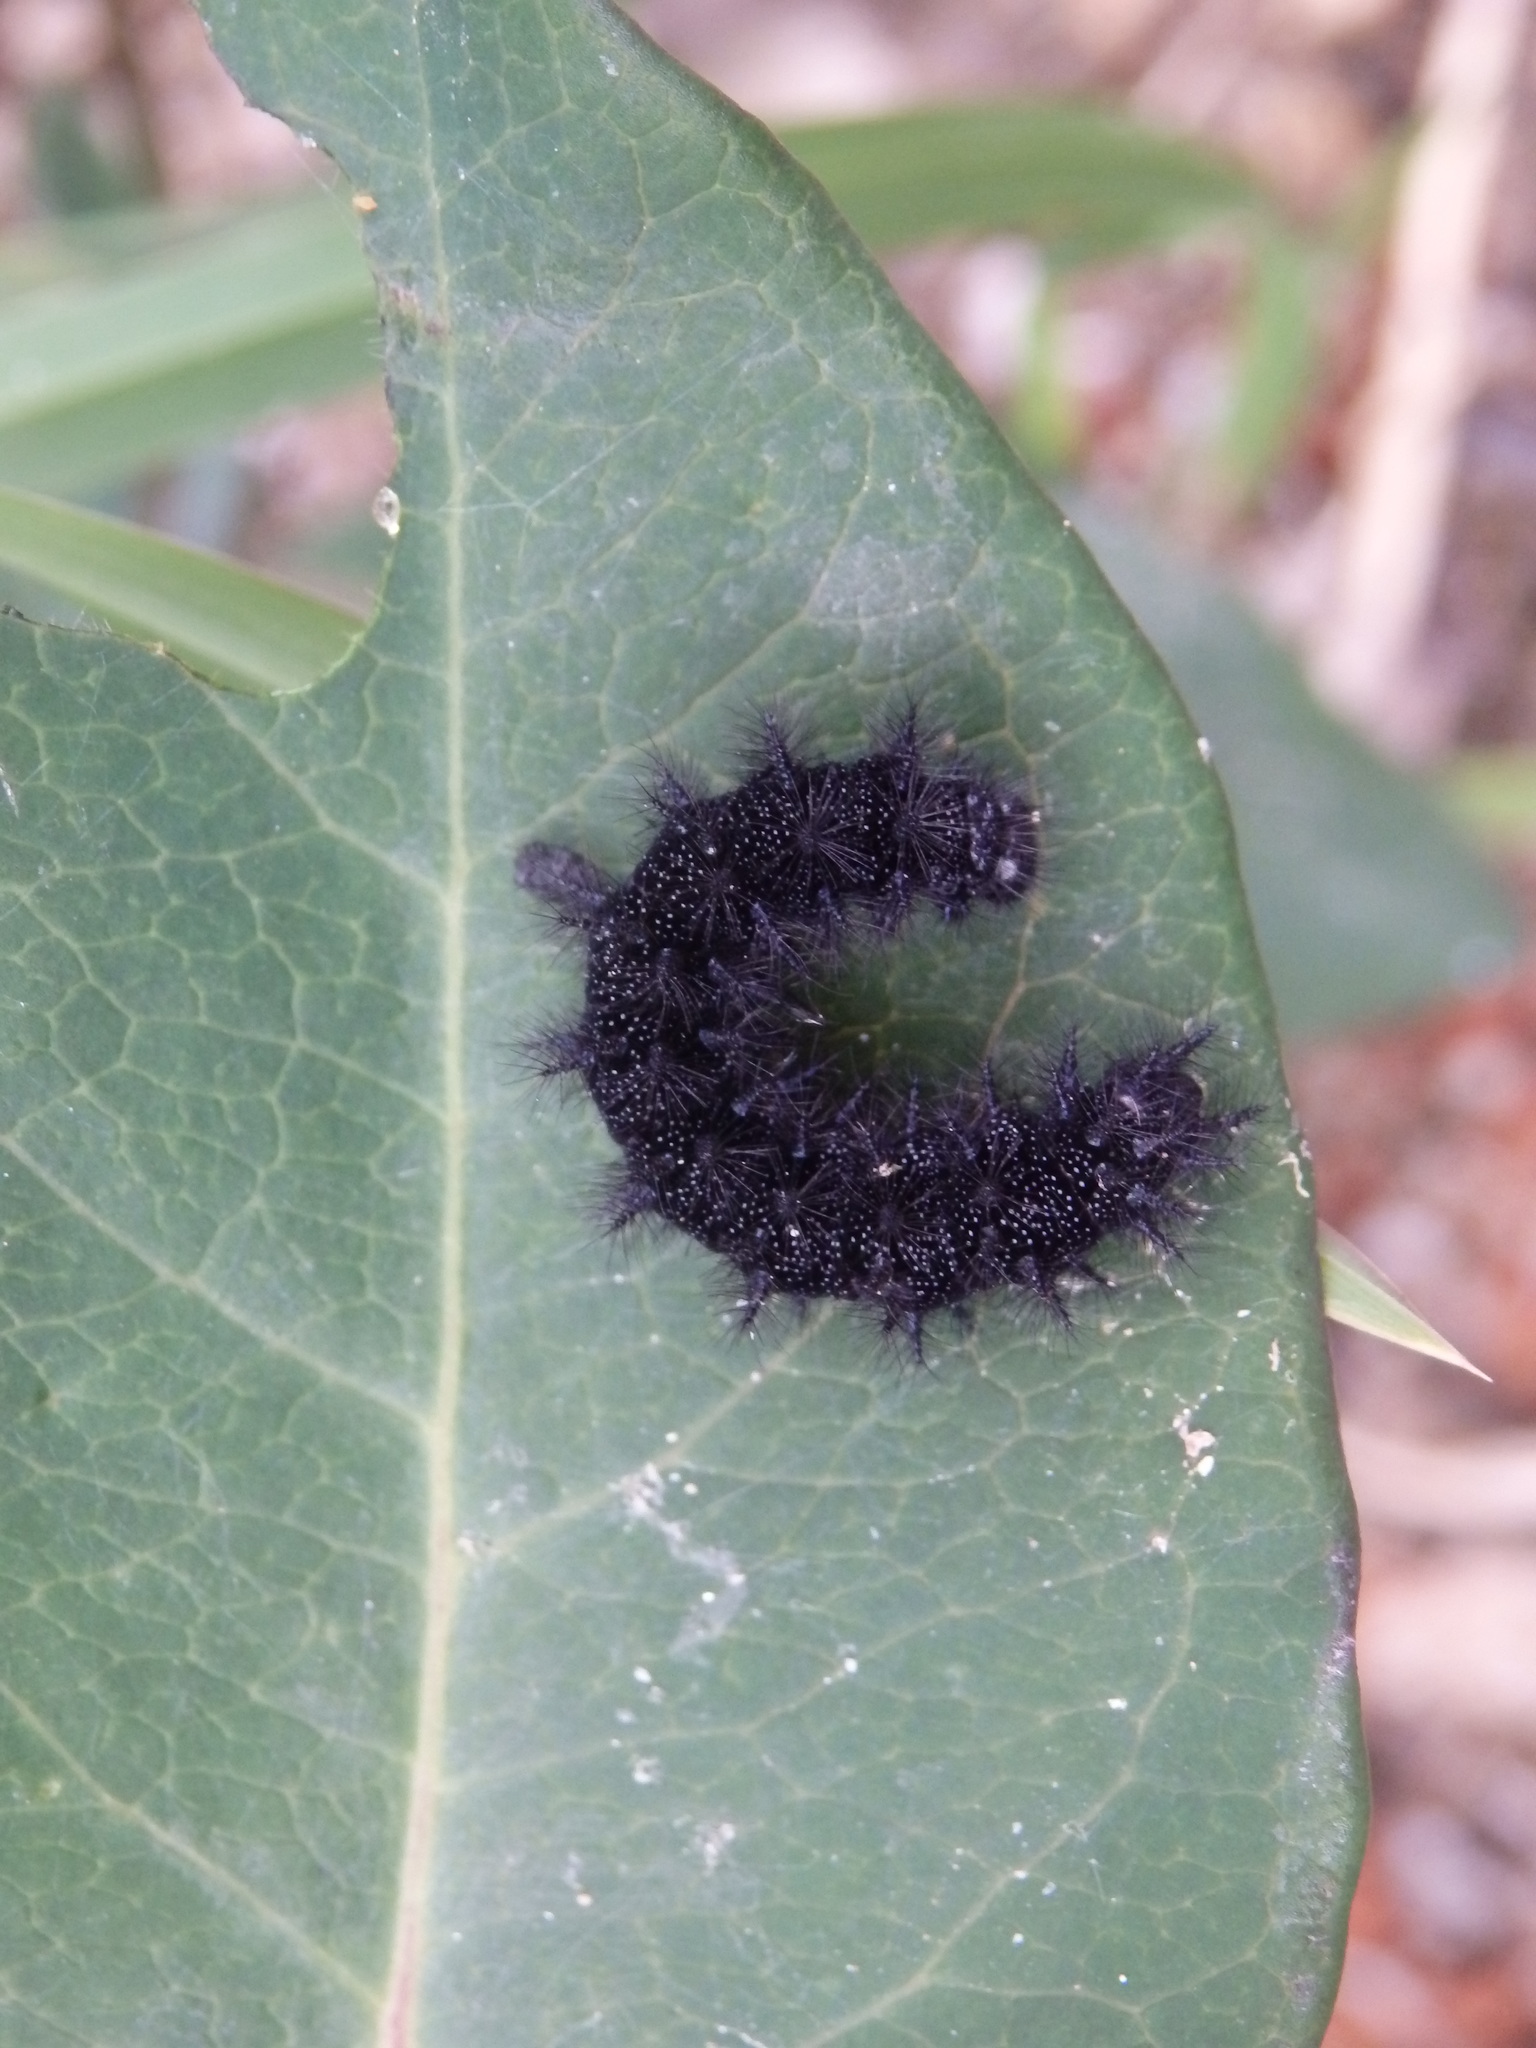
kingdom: Animalia
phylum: Arthropoda
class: Insecta
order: Lepidoptera
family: Nymphalidae
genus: Euphydryas
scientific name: Euphydryas aurinia
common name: Marsh fritillary
